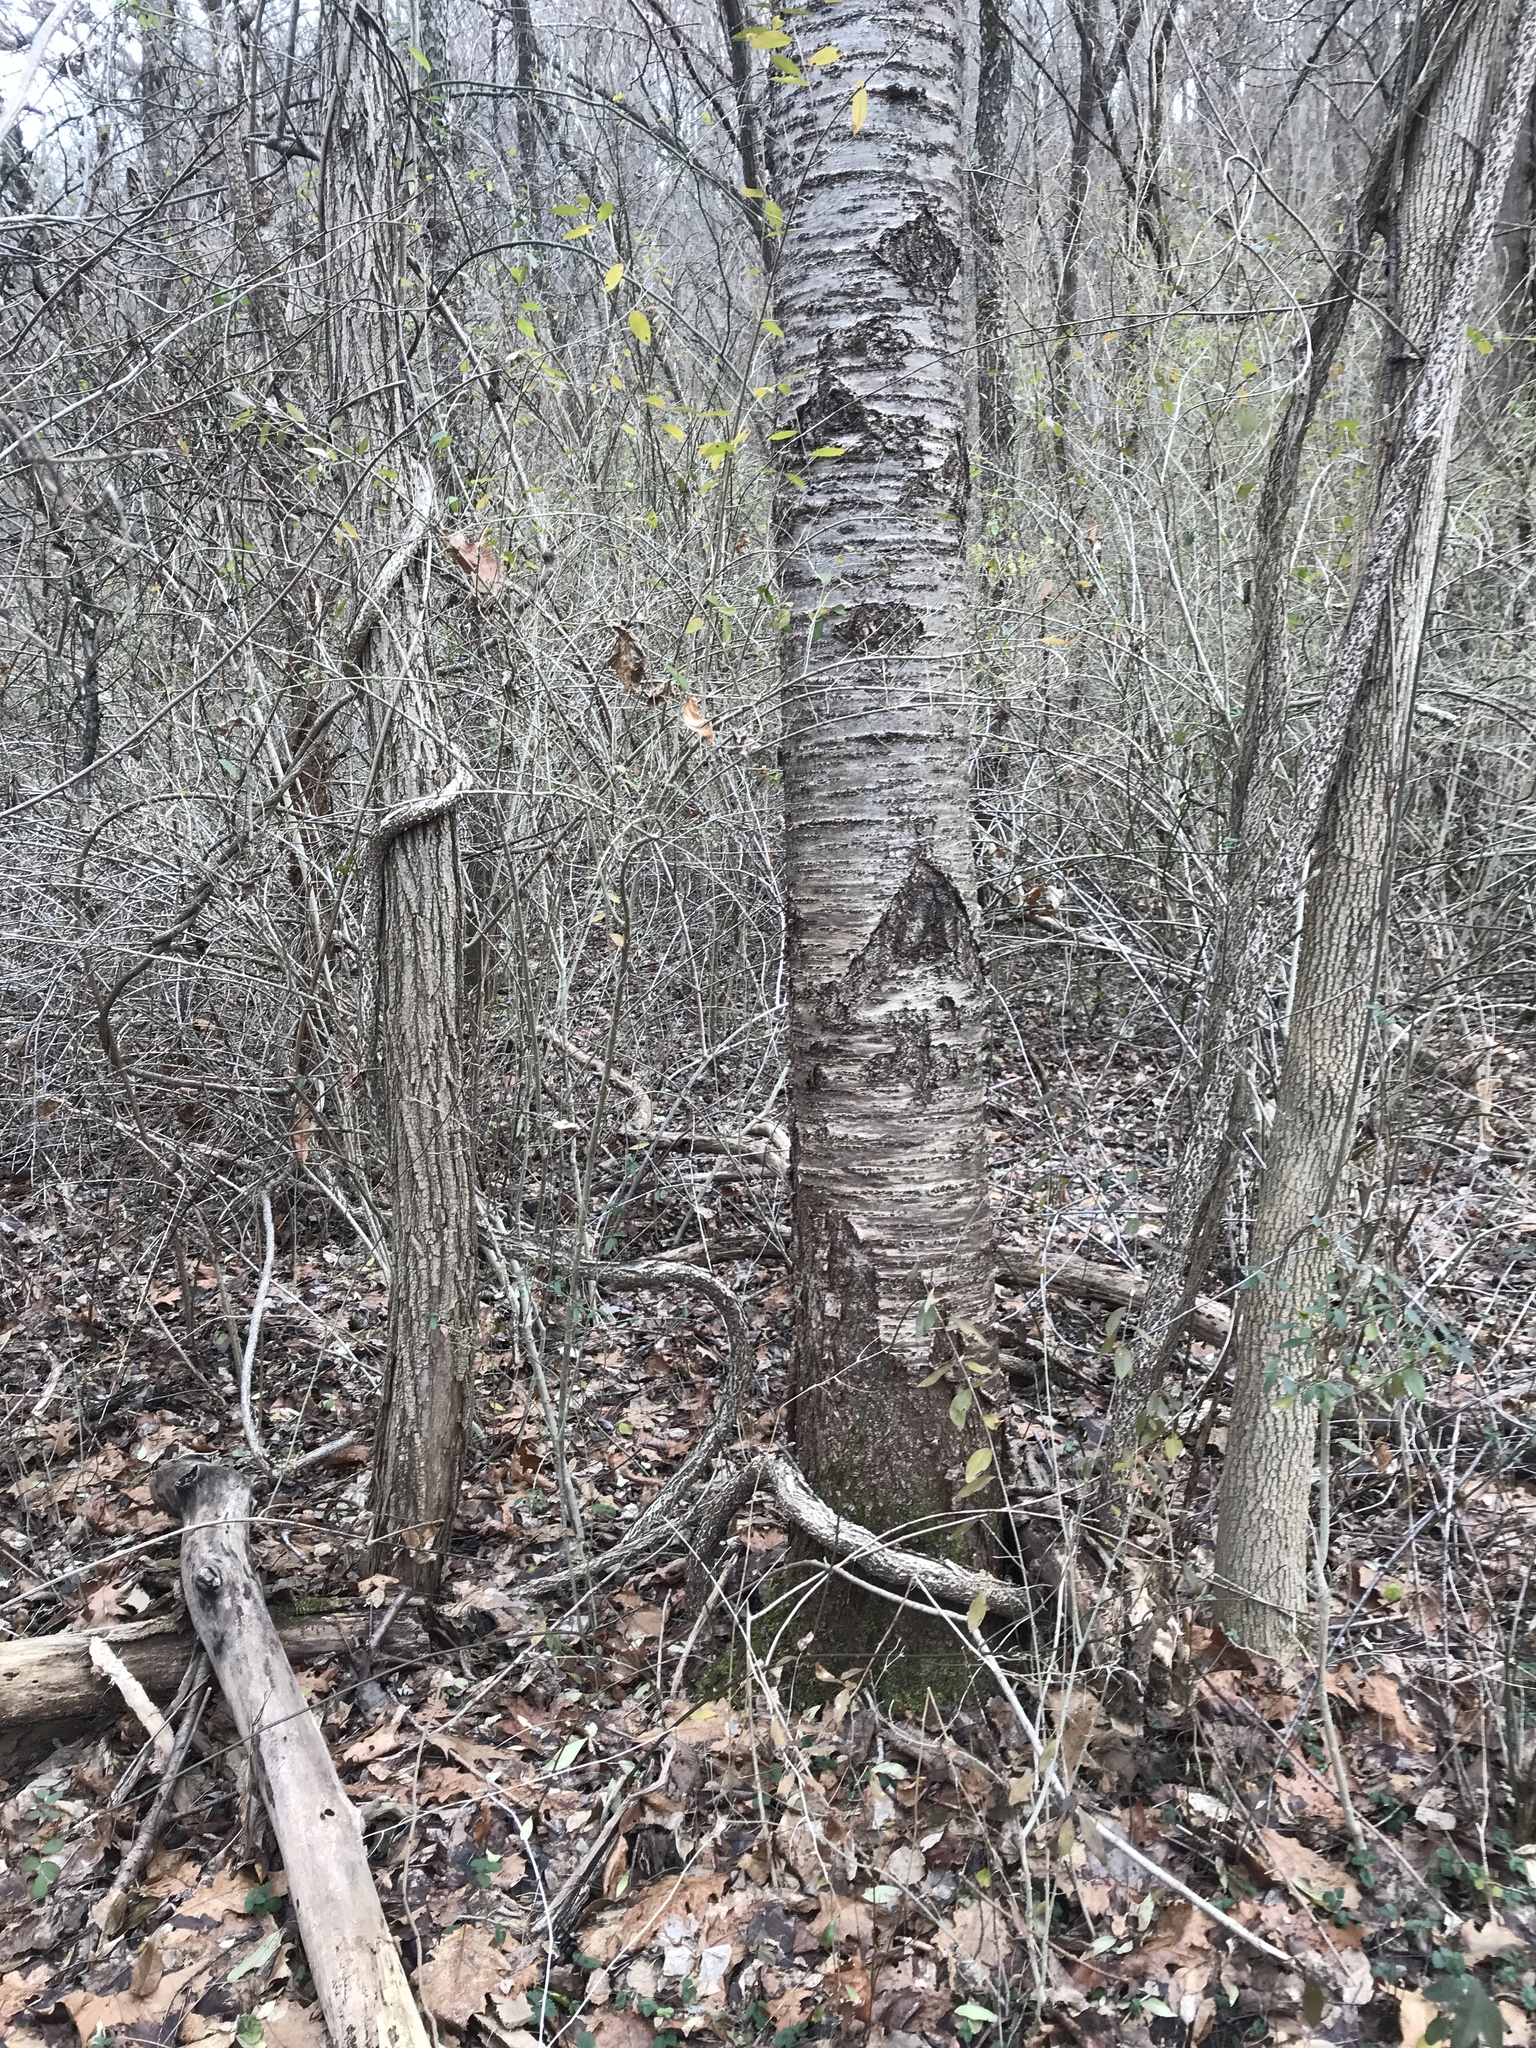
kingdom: Plantae
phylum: Tracheophyta
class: Magnoliopsida
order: Rosales
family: Rosaceae
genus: Prunus
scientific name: Prunus avium
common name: Sweet cherry
